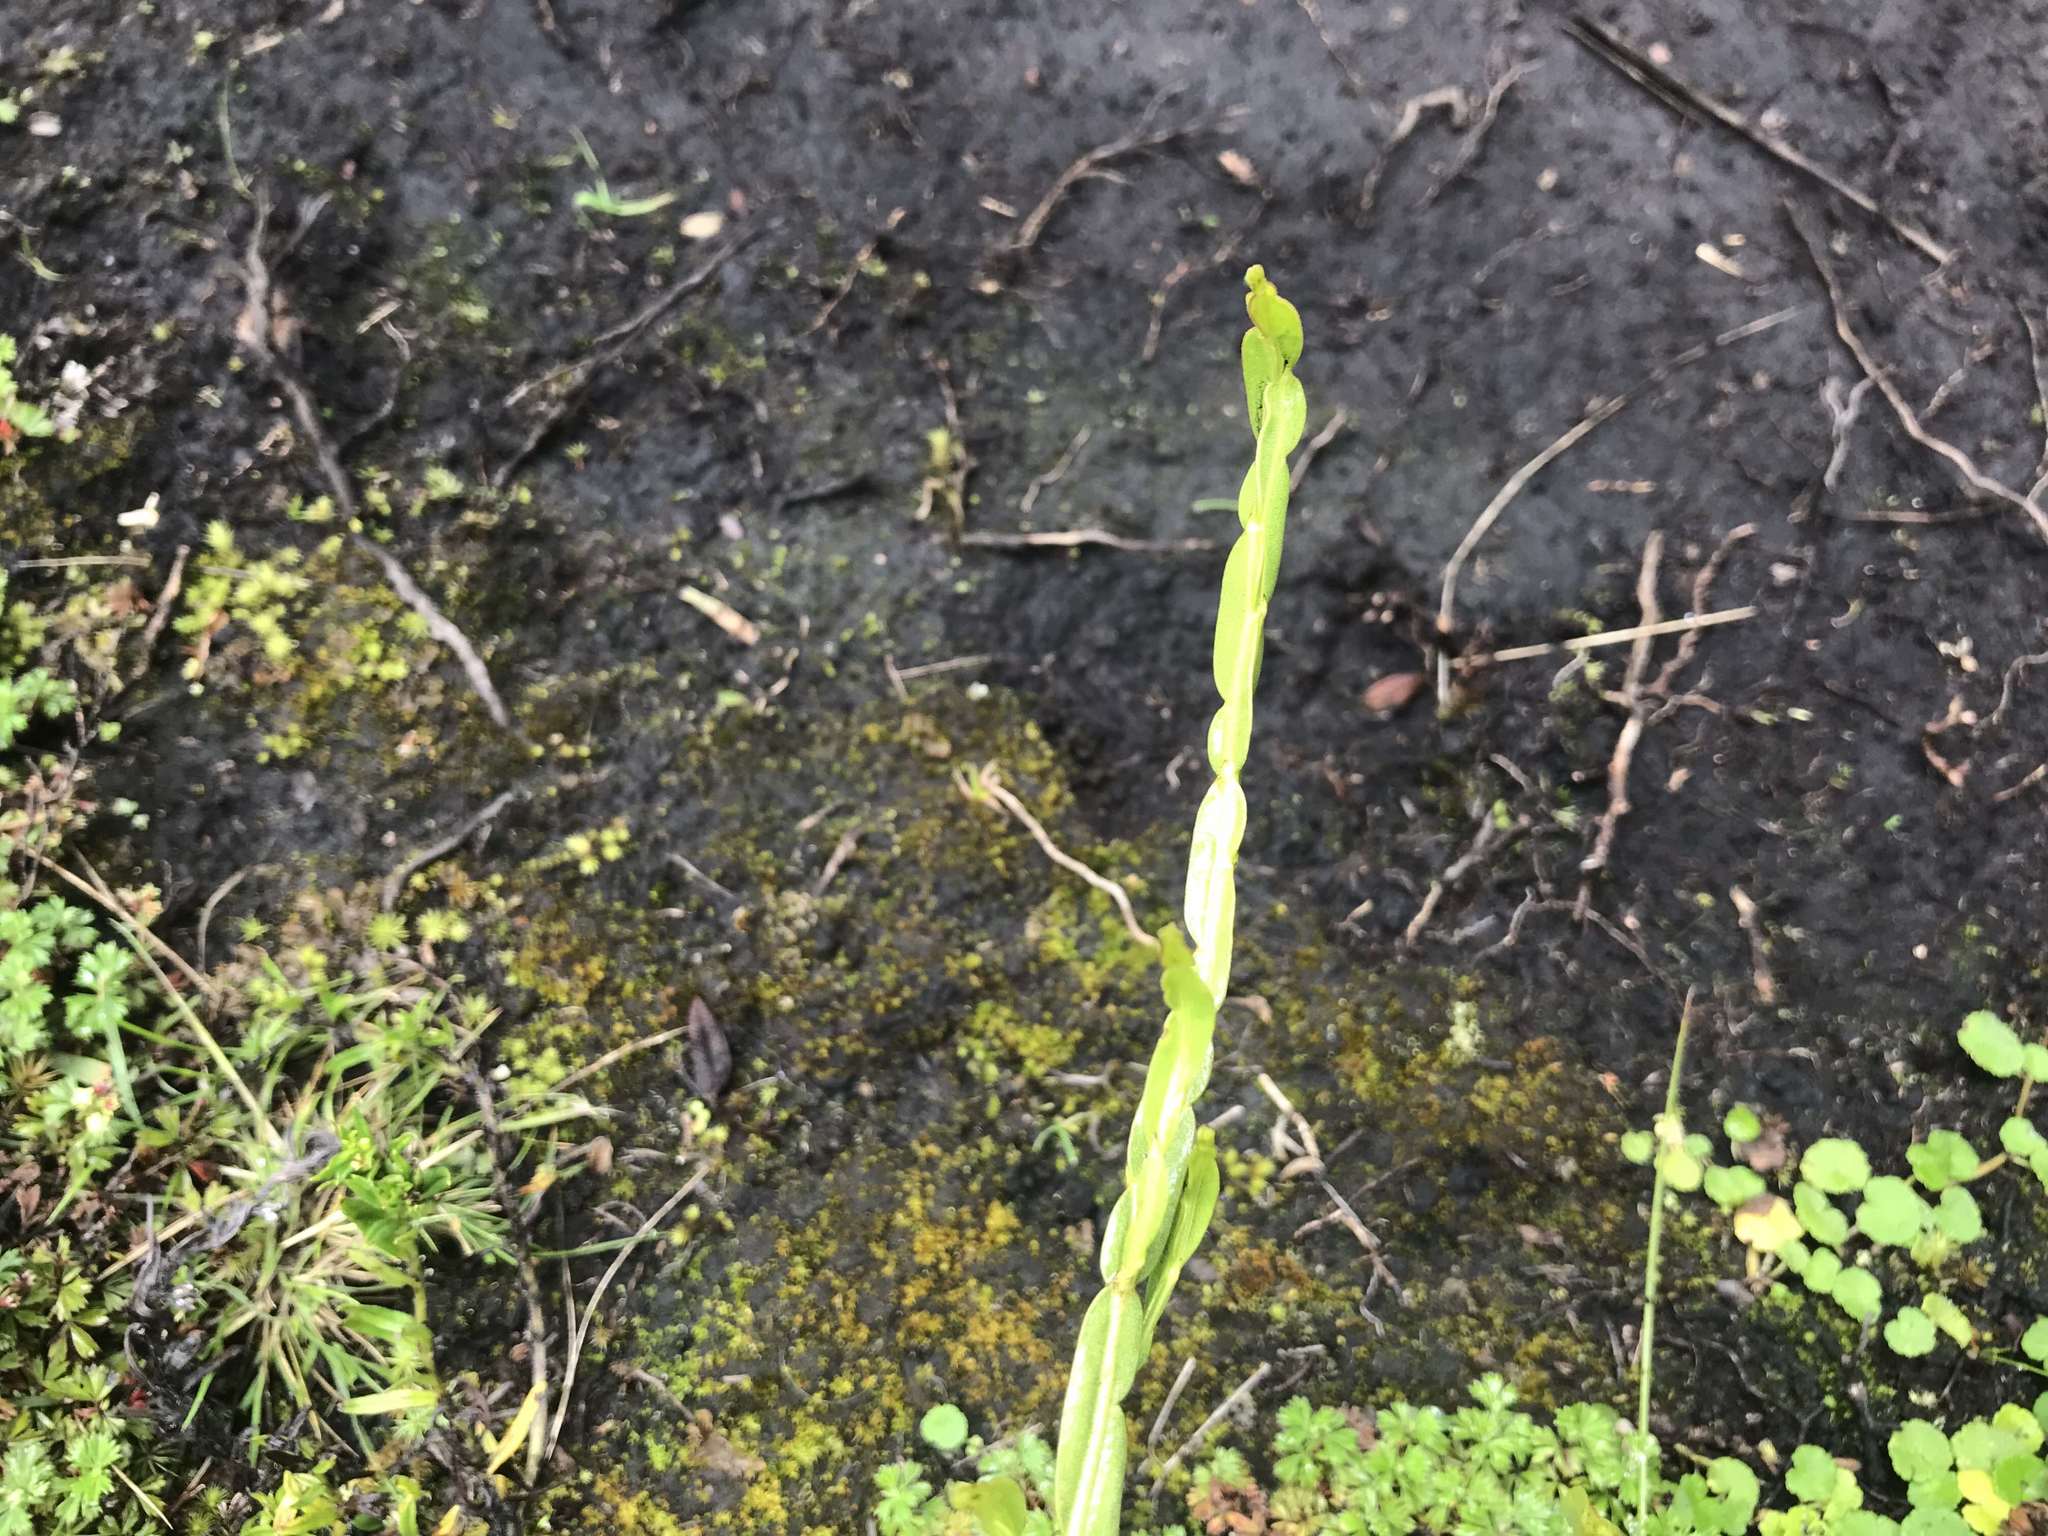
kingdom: Plantae
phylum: Tracheophyta
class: Magnoliopsida
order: Asterales
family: Asteraceae
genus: Baccharis
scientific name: Baccharis genistelloides
